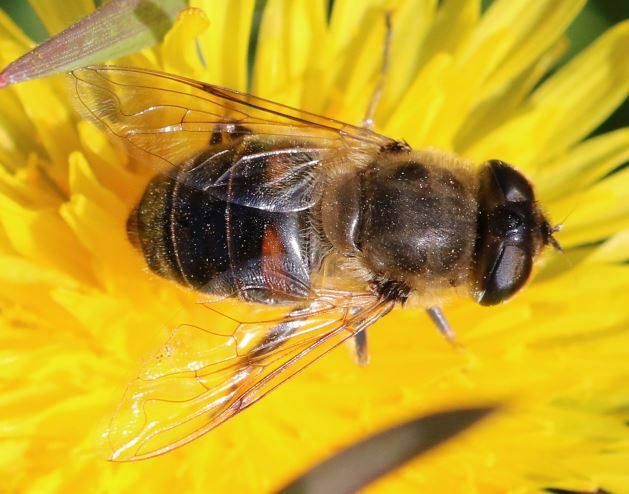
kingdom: Animalia
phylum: Arthropoda
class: Insecta
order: Diptera
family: Syrphidae
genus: Eristalis
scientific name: Eristalis tenax
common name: Drone fly
